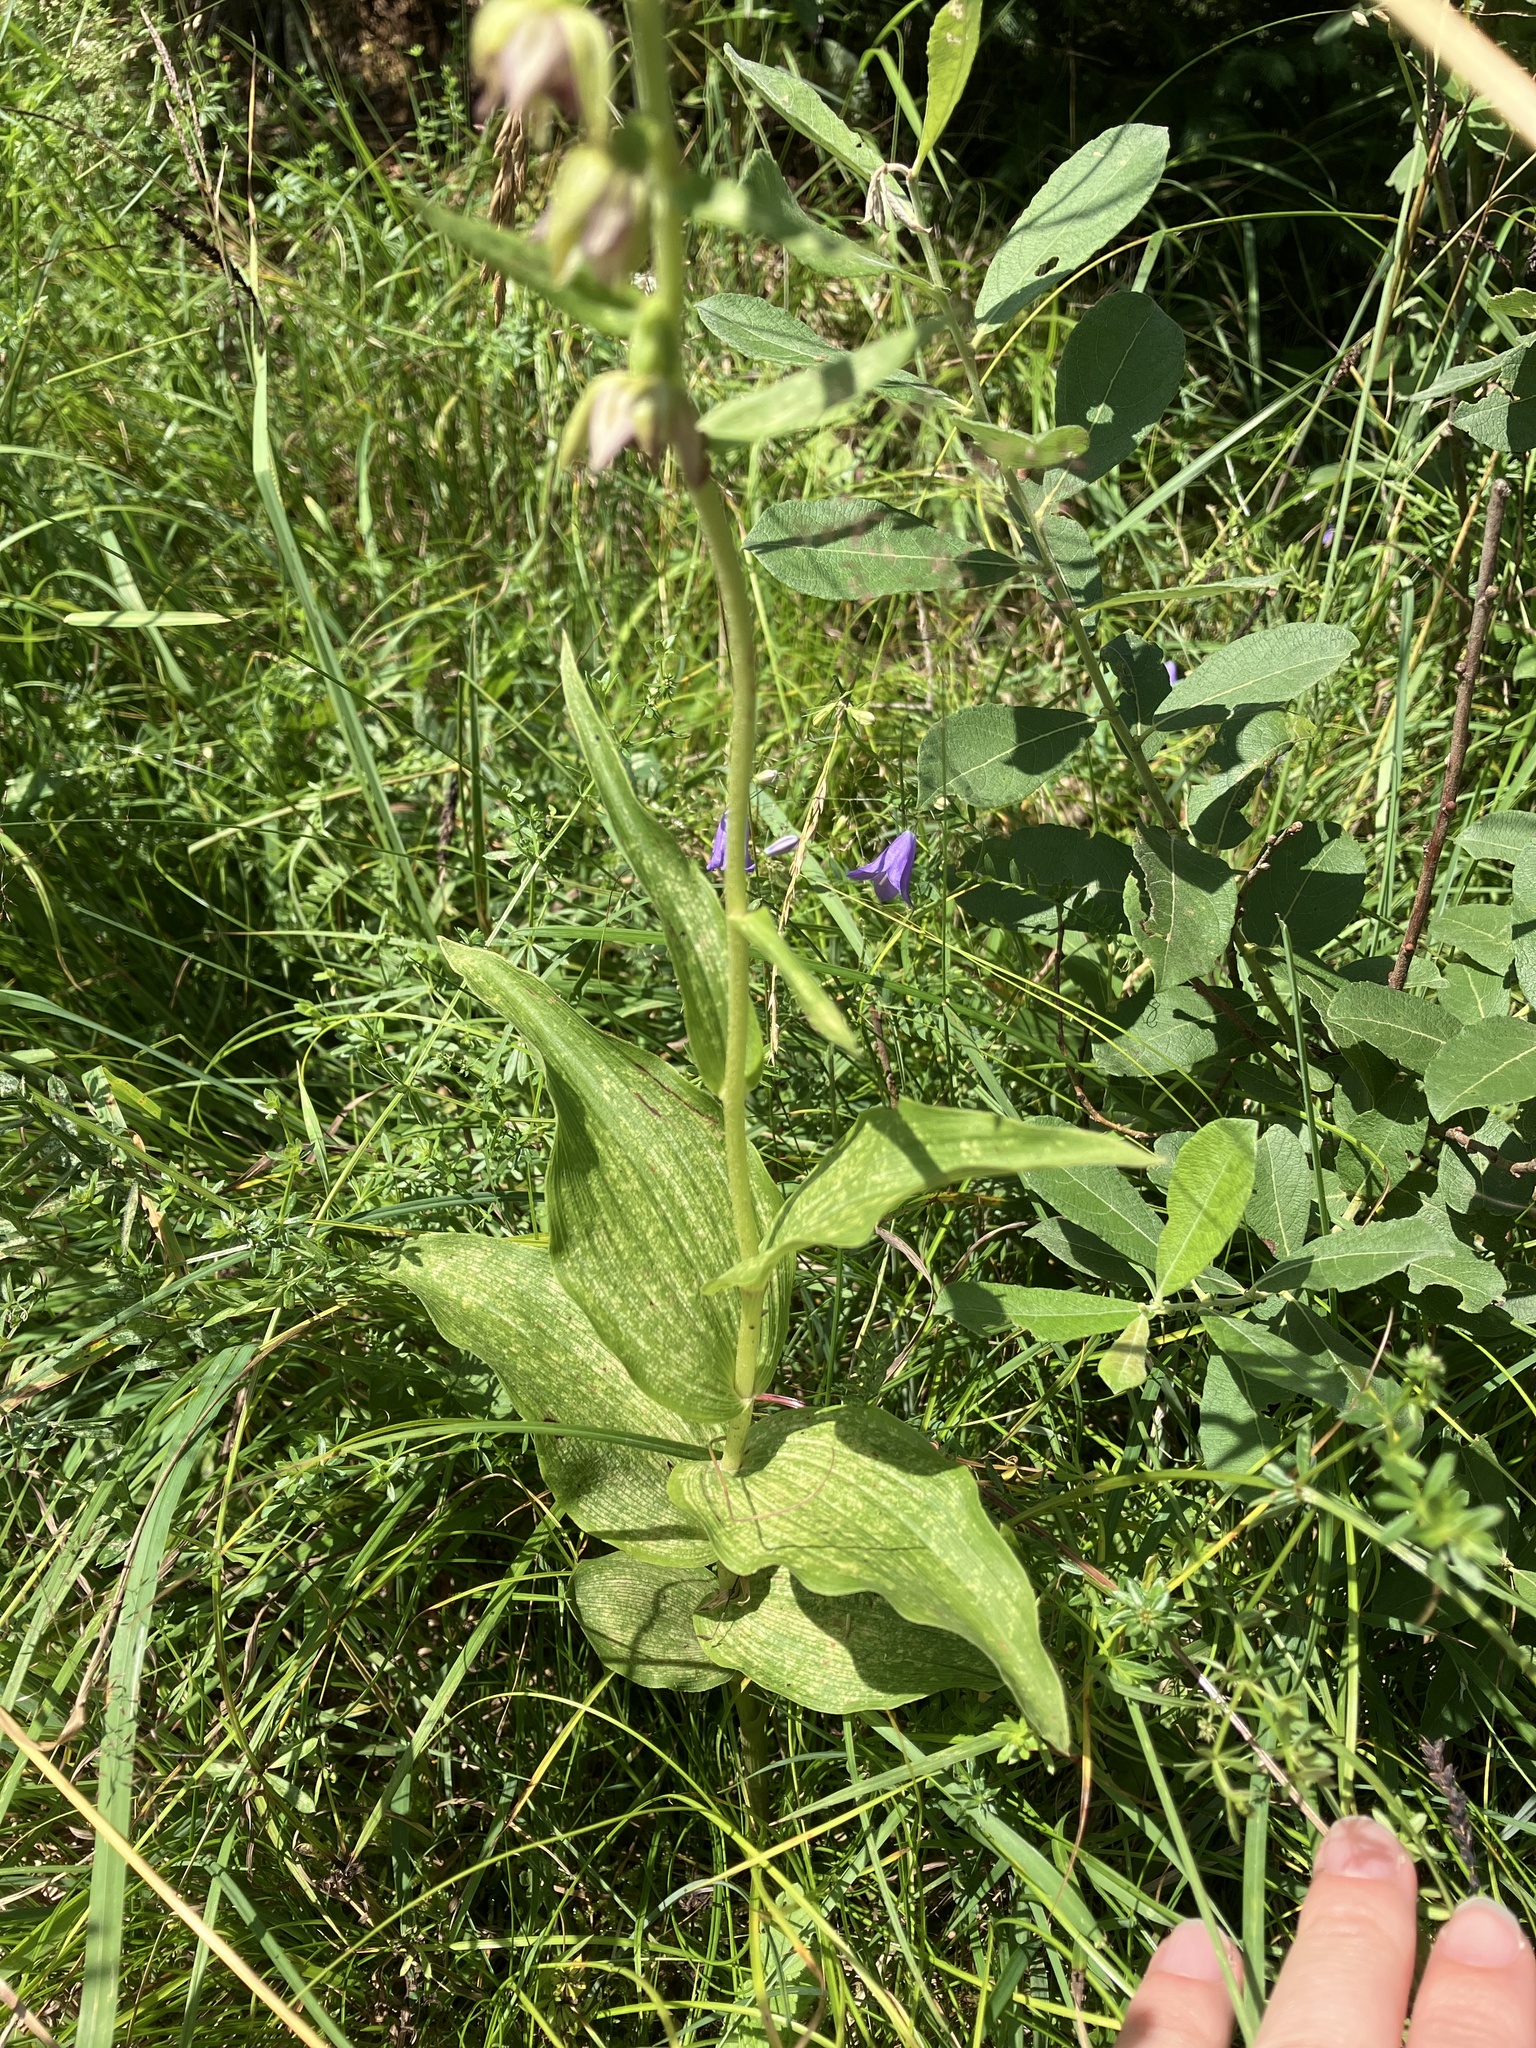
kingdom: Plantae
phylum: Tracheophyta
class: Liliopsida
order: Asparagales
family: Orchidaceae
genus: Epipactis
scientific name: Epipactis helleborine
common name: Broad-leaved helleborine
